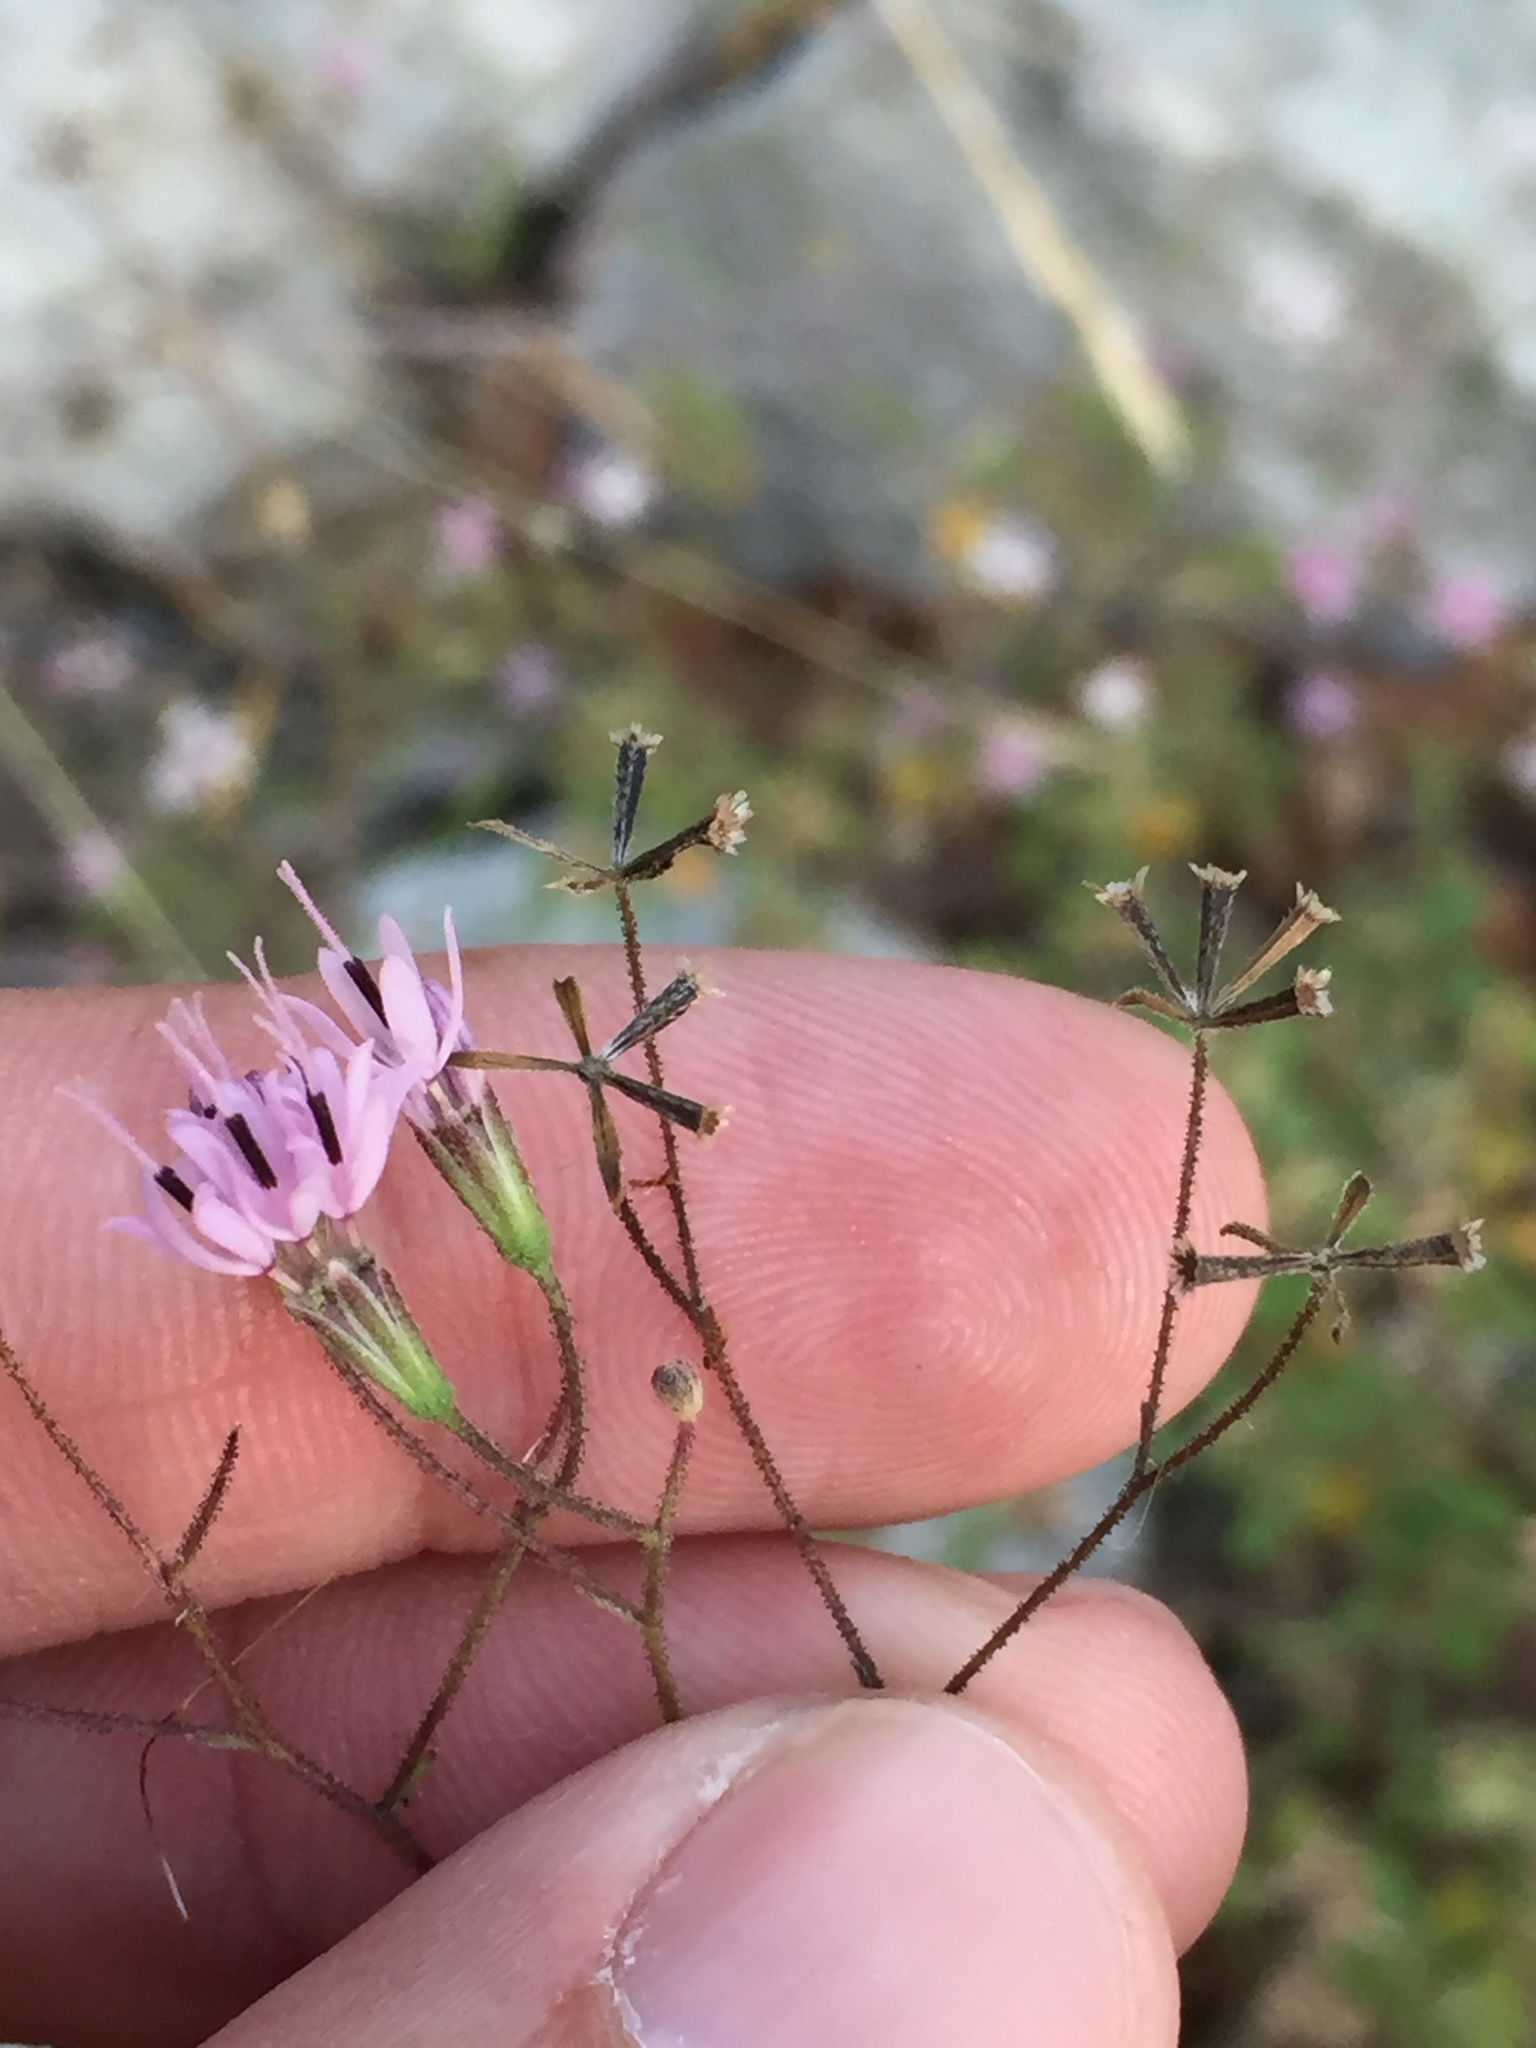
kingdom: Plantae
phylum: Tracheophyta
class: Magnoliopsida
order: Asterales
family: Asteraceae
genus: Palafoxia
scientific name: Palafoxia callosa
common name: Small palafox
